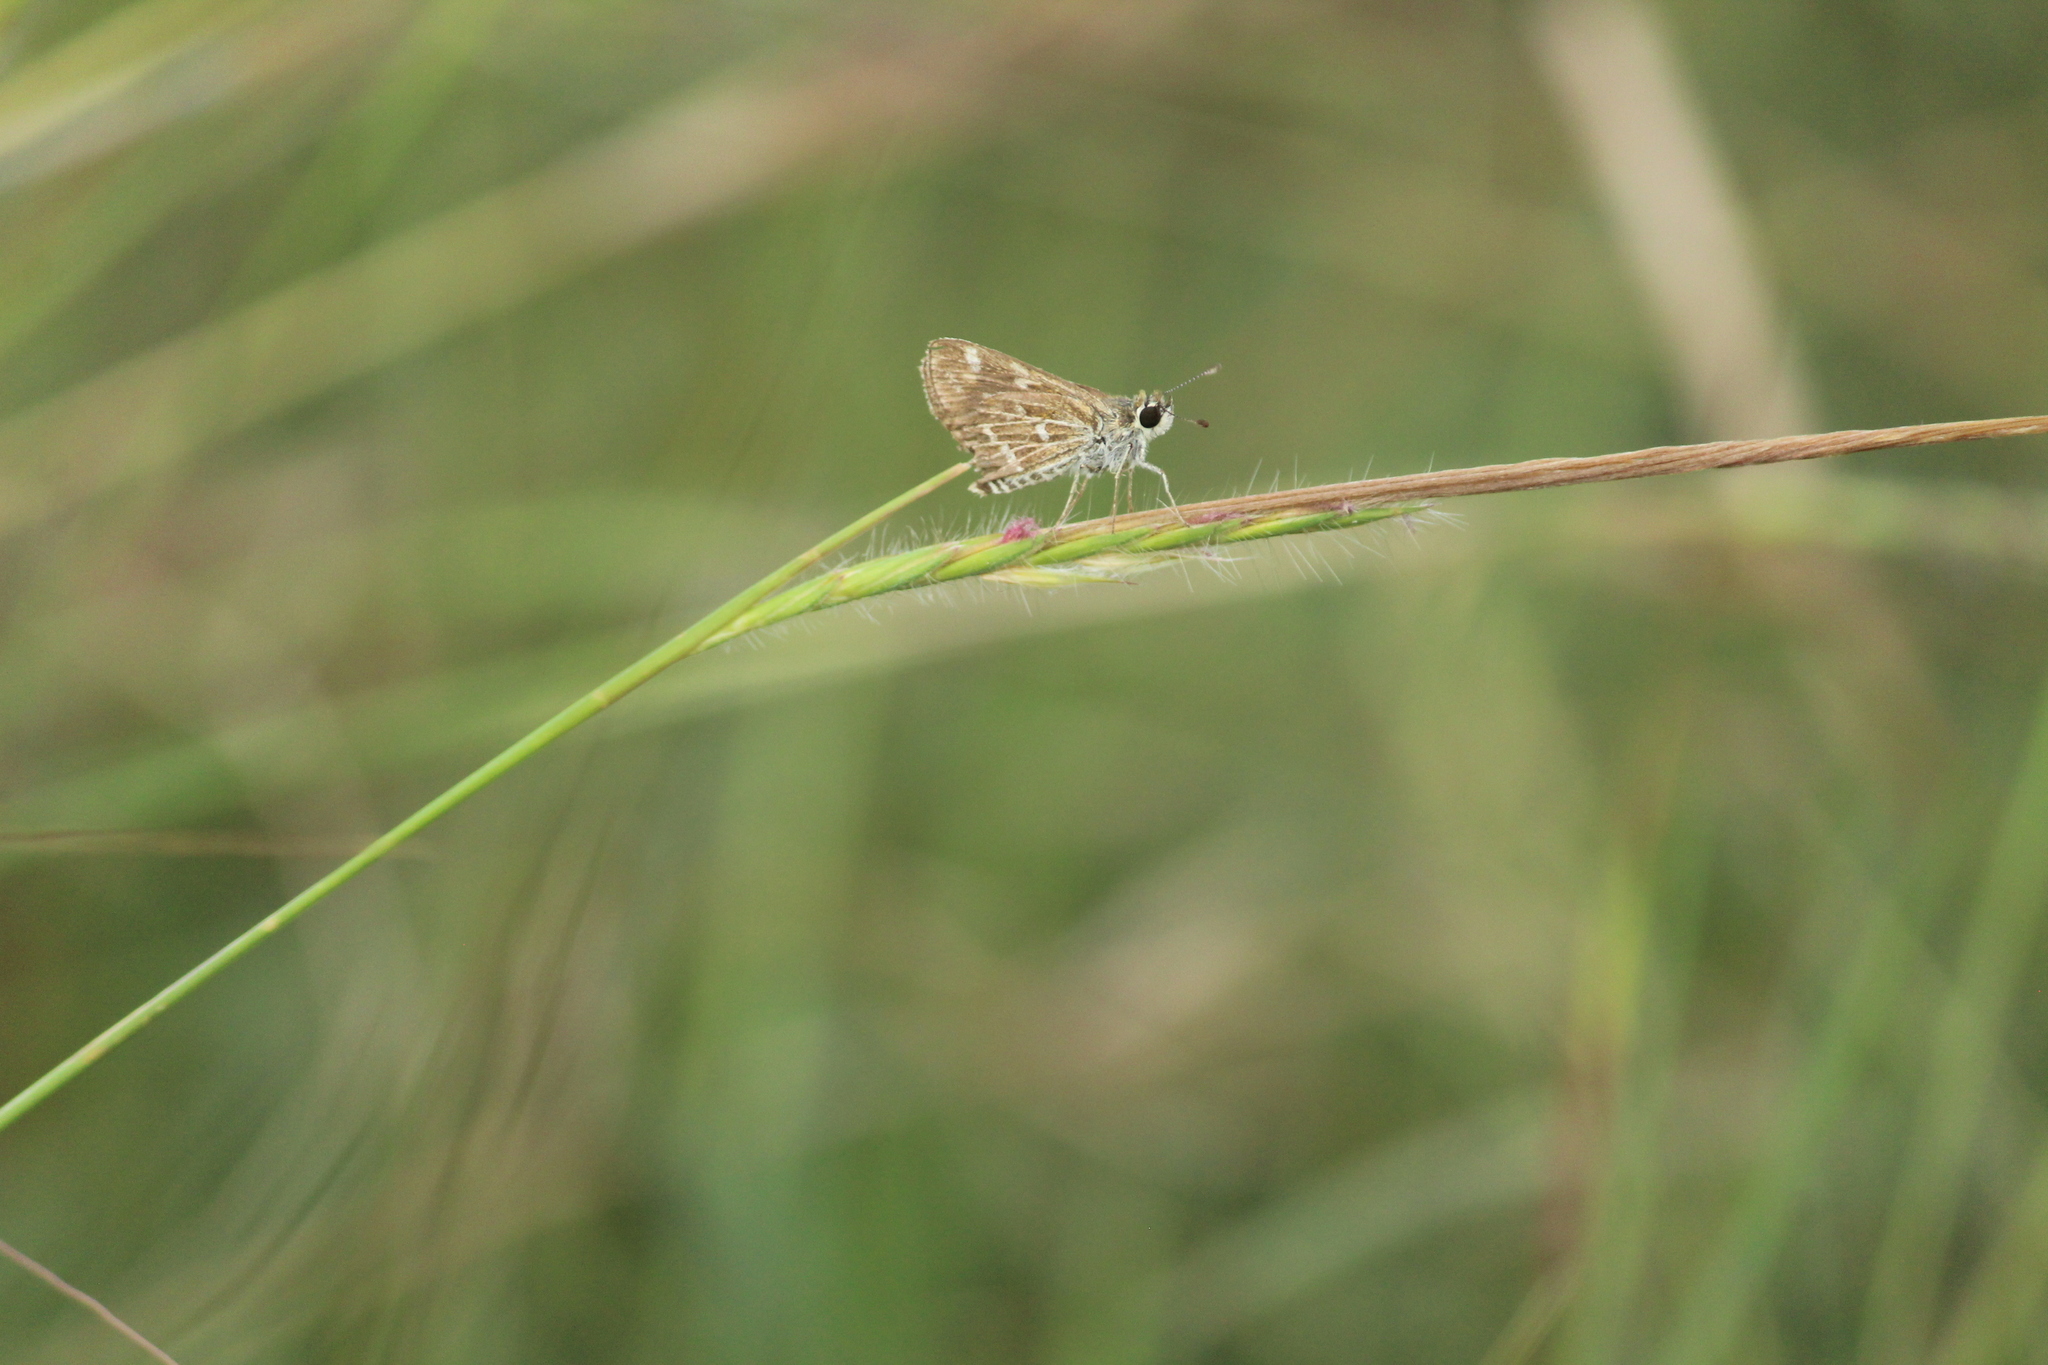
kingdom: Animalia
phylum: Arthropoda
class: Insecta
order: Lepidoptera
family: Hesperiidae
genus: Taractrocera
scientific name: Taractrocera maevius
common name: Common grass-dart
